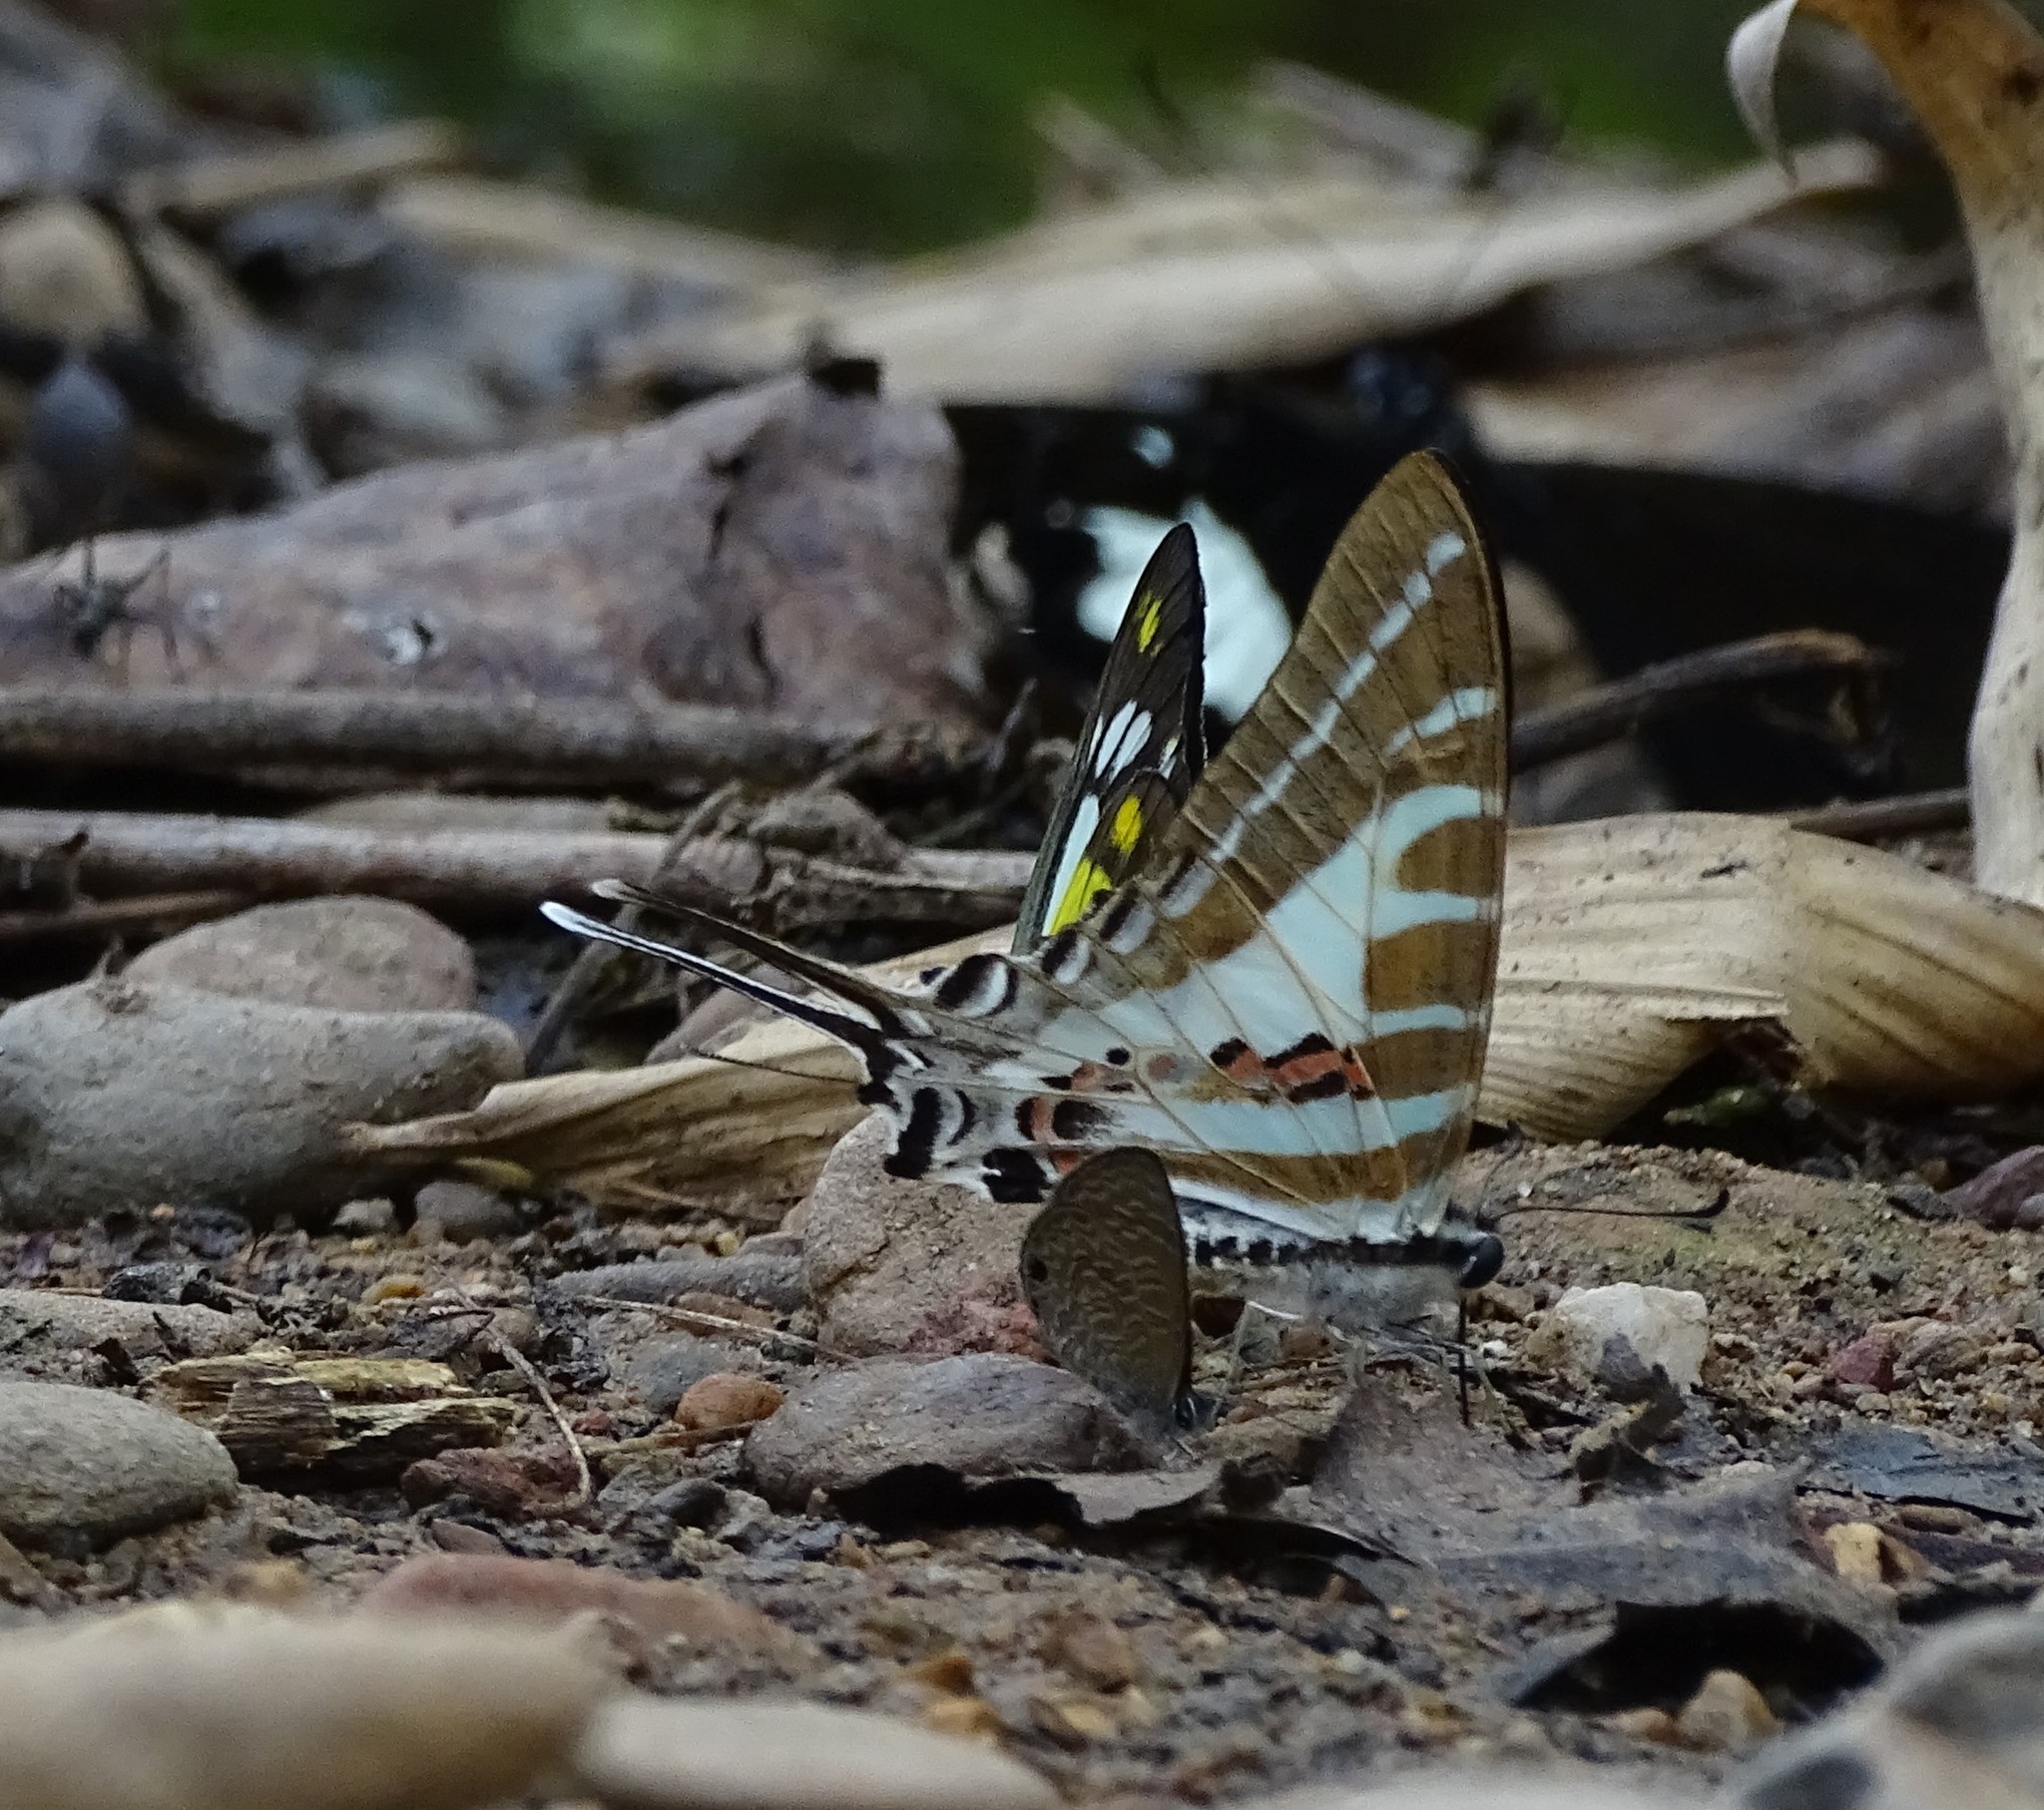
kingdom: Animalia
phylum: Arthropoda
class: Insecta
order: Lepidoptera
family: Papilionidae
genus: Graphium
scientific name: Graphium aristeus
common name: Chain swordtail
